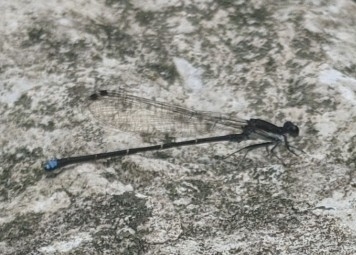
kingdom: Animalia
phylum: Arthropoda
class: Insecta
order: Odonata
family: Coenagrionidae
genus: Argia
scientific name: Argia tibialis
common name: Blue-tipped dancer
